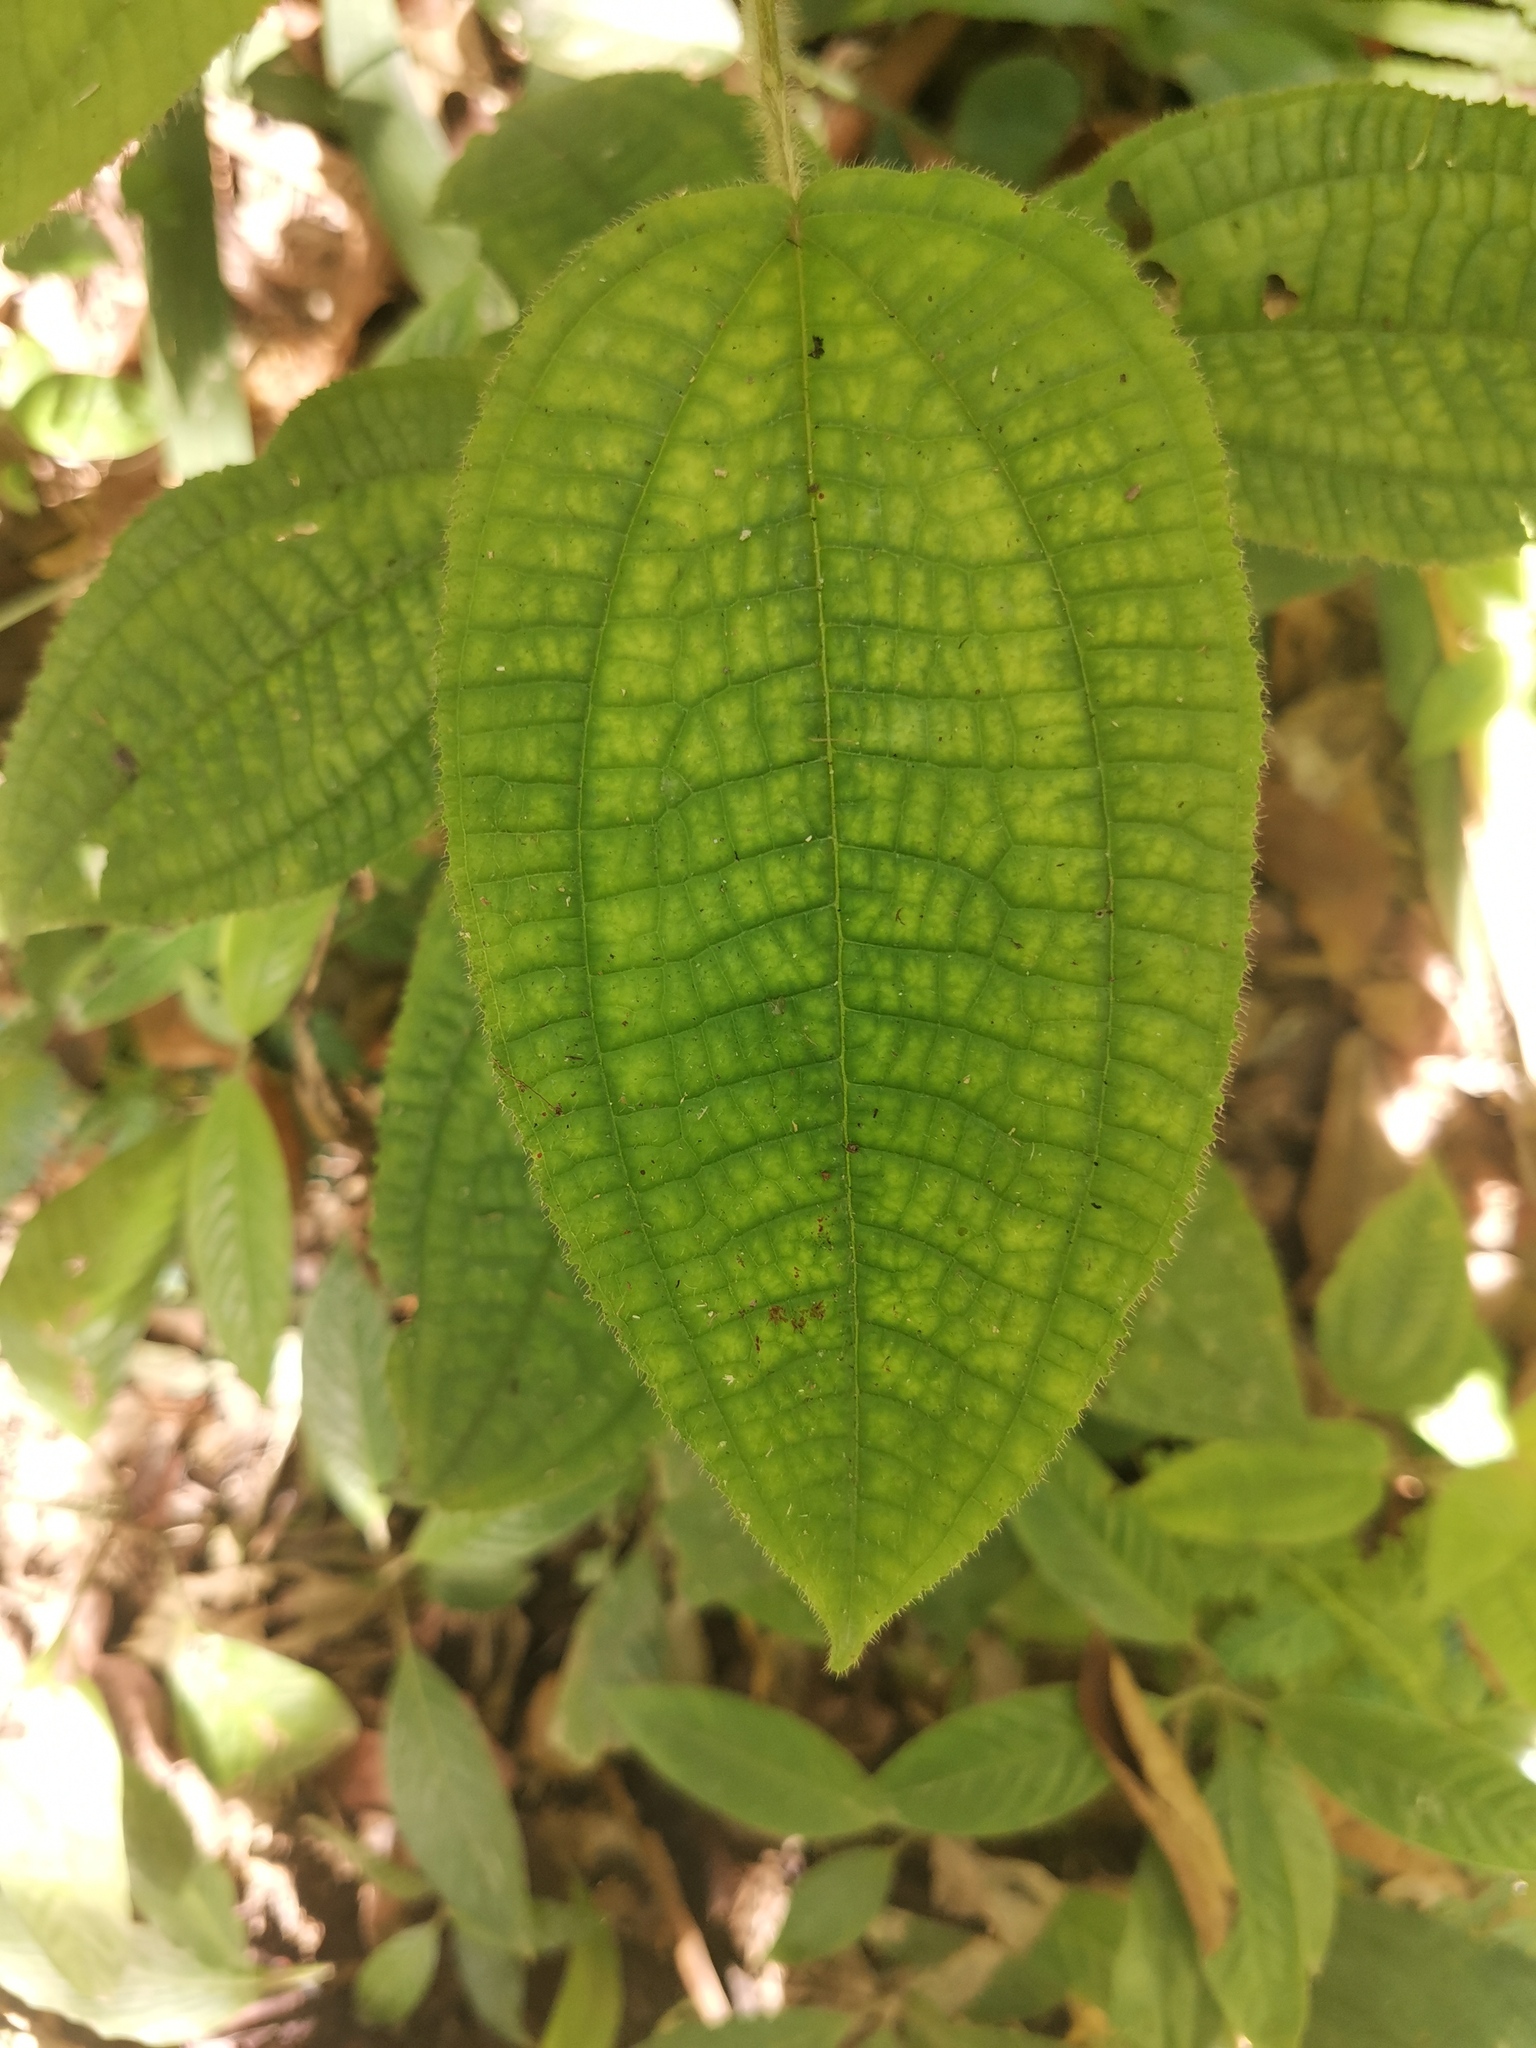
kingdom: Plantae
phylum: Tracheophyta
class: Magnoliopsida
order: Myrtales
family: Melastomataceae
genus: Miconia
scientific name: Miconia crenata
